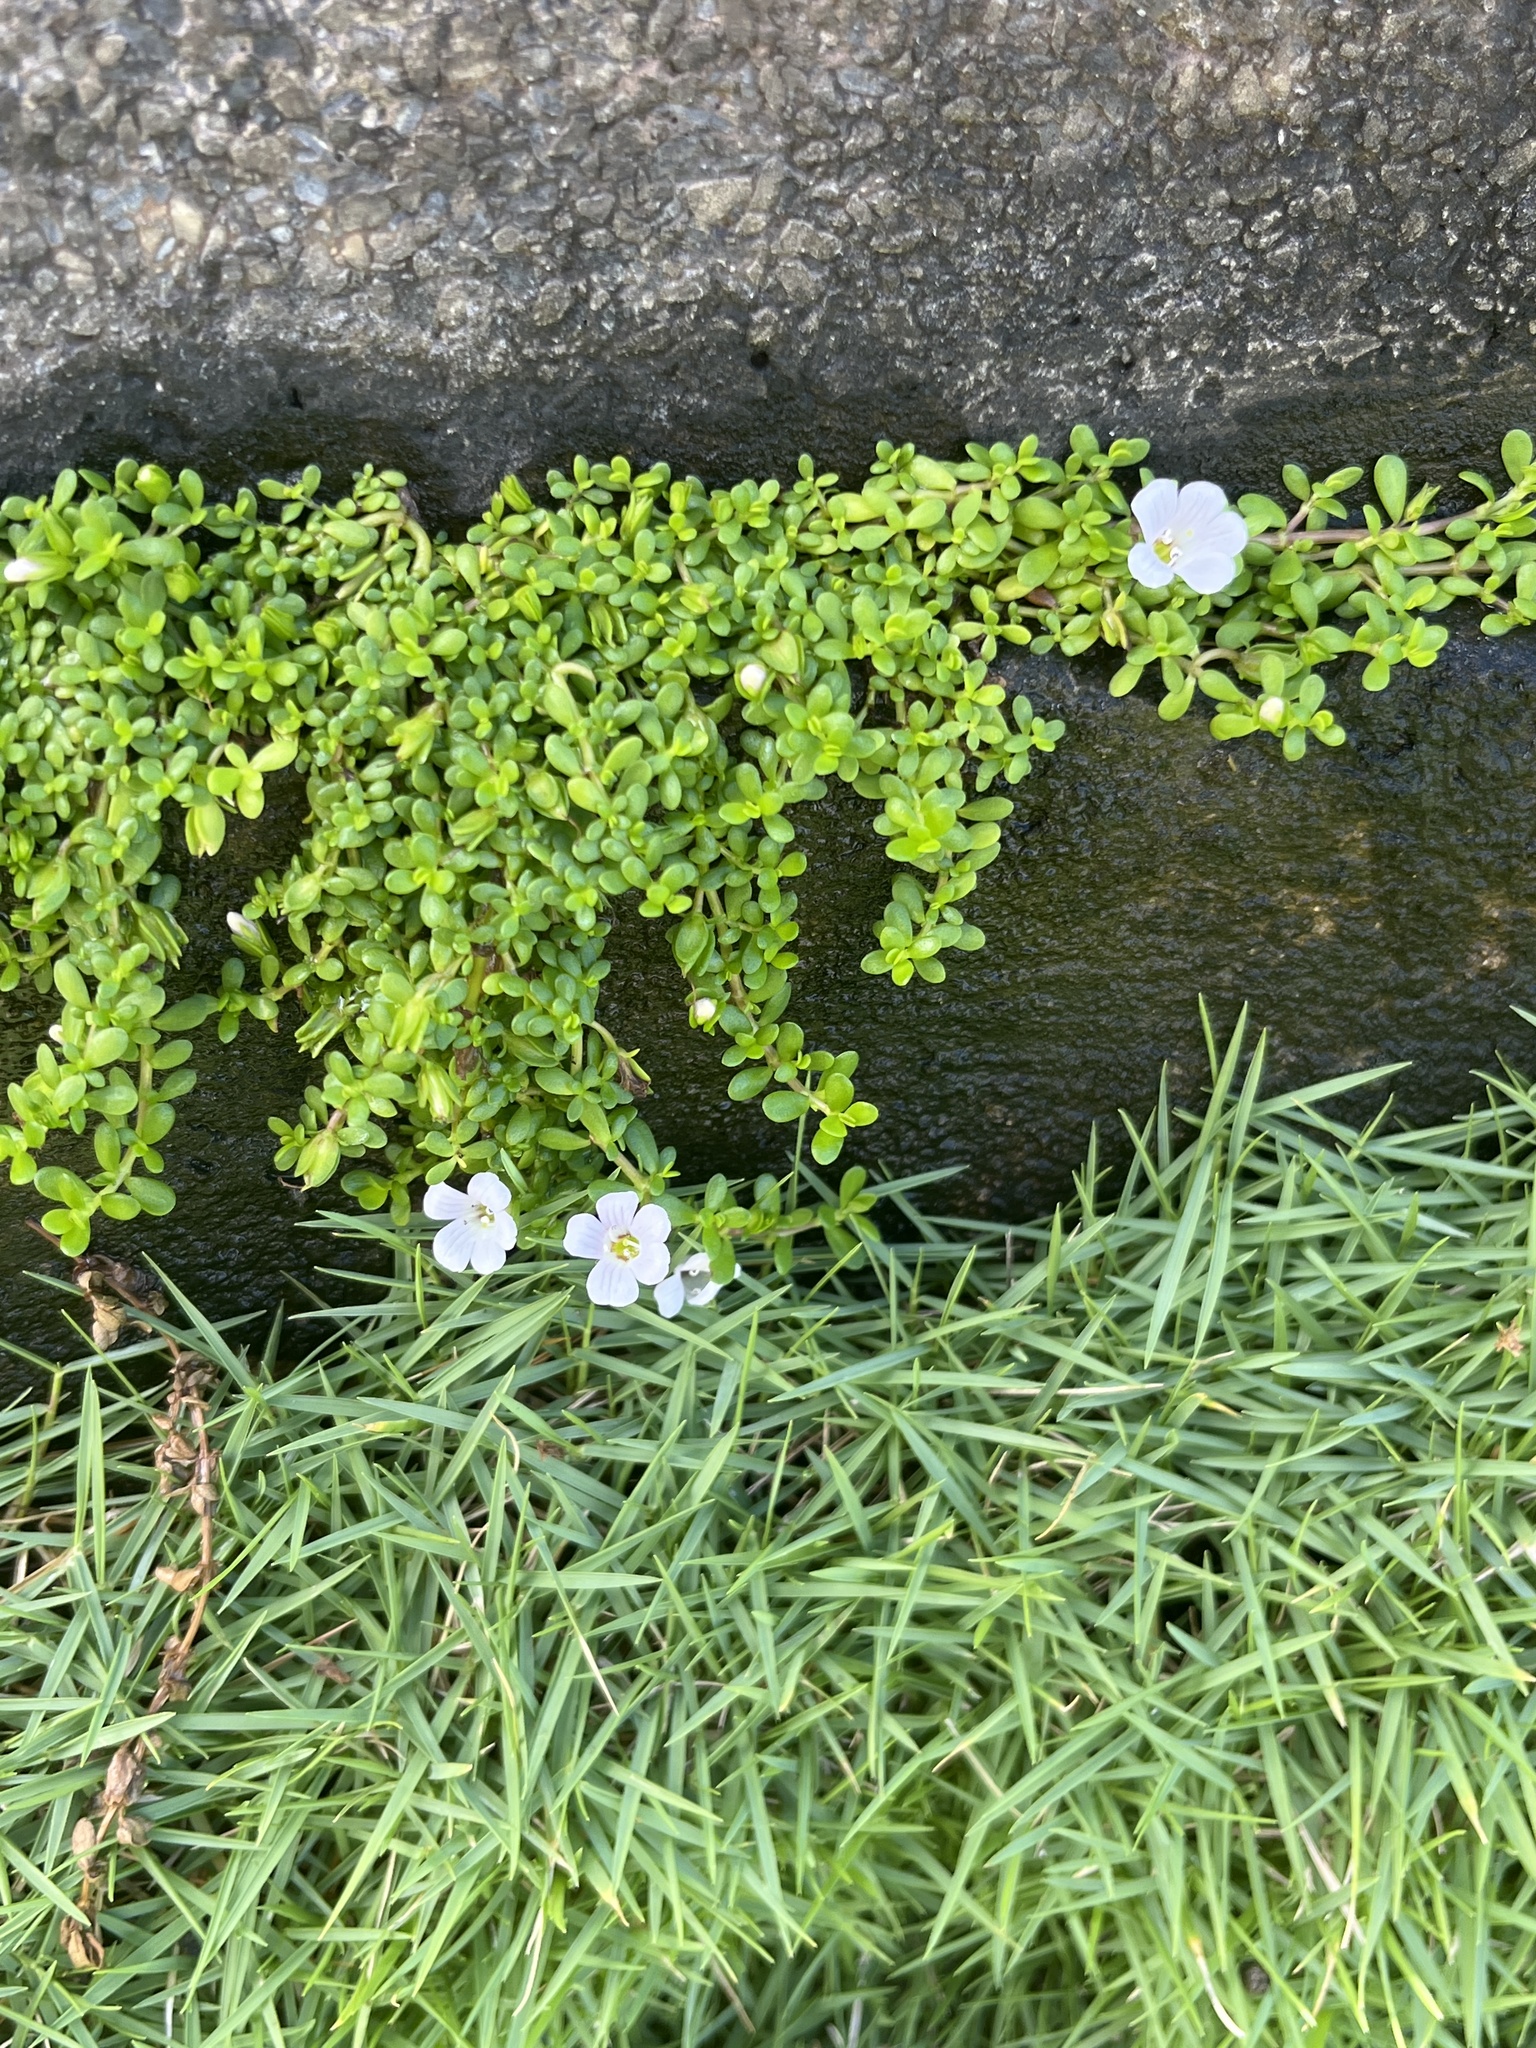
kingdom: Plantae
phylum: Tracheophyta
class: Magnoliopsida
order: Lamiales
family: Plantaginaceae
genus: Bacopa
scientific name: Bacopa monnieri
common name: Indian-pennywort
